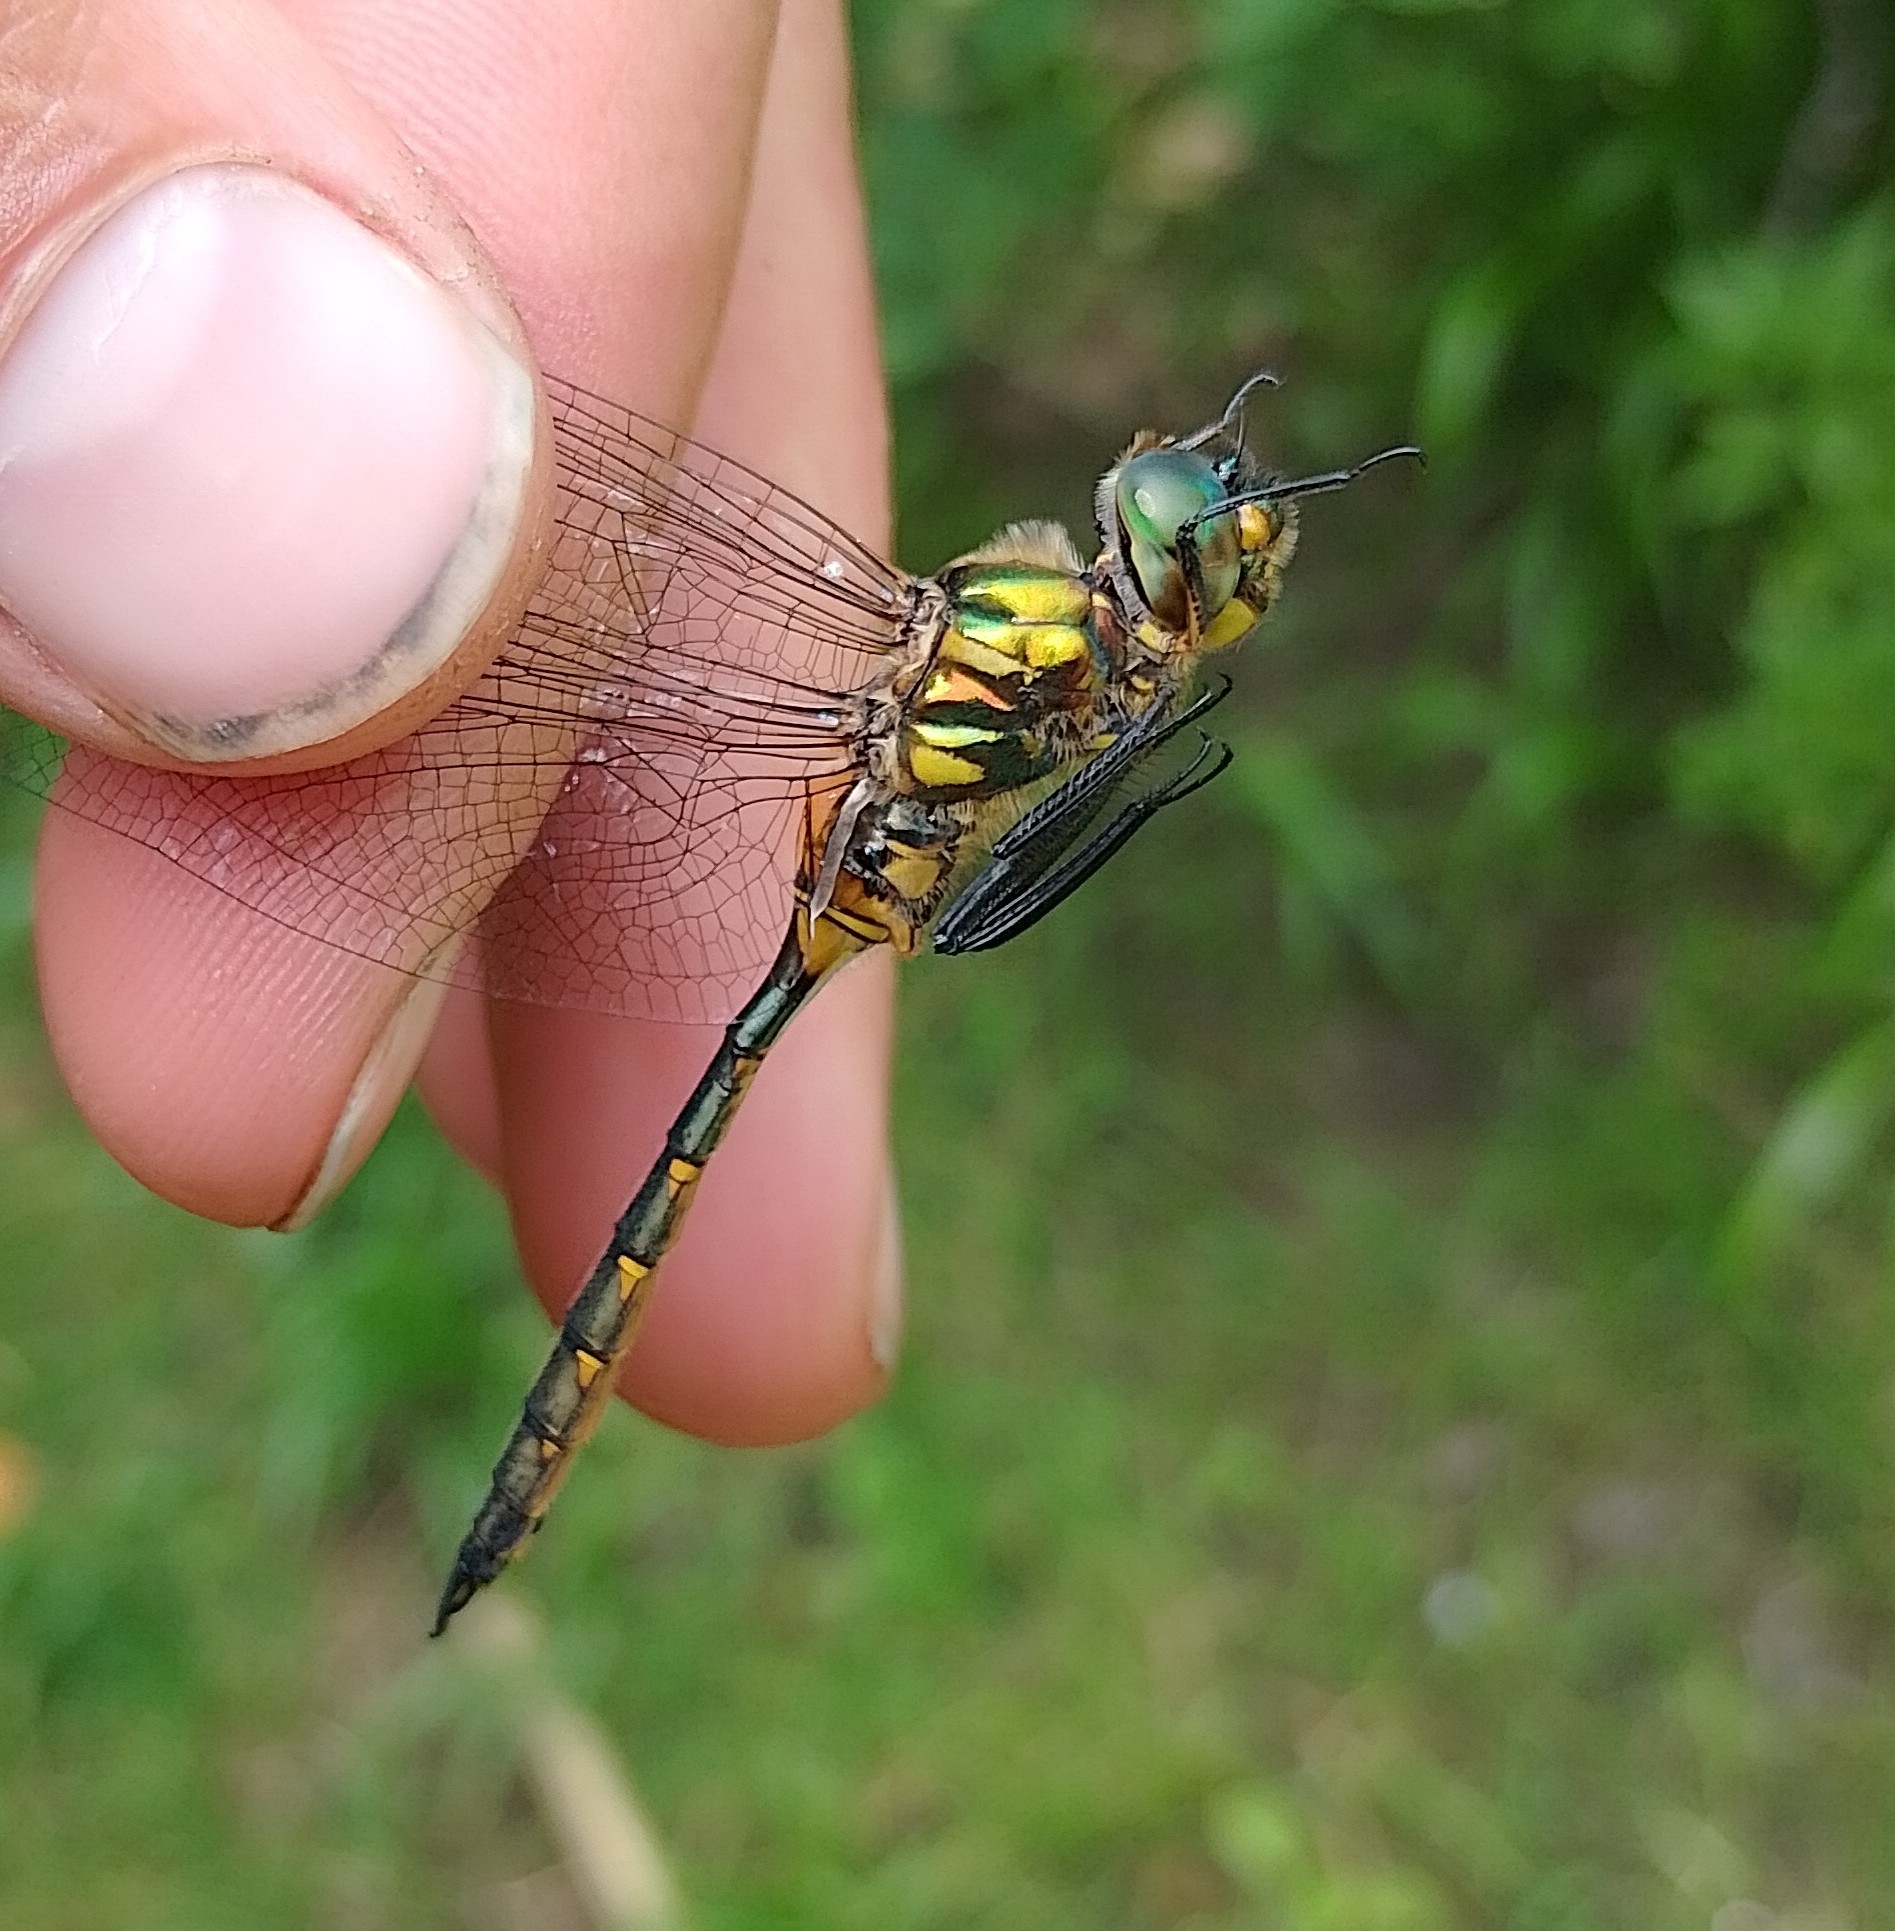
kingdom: Animalia
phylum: Arthropoda
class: Insecta
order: Odonata
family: Corduliidae
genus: Somatochlora
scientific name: Somatochlora flavomaculata
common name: Yellow-spotted emerald
